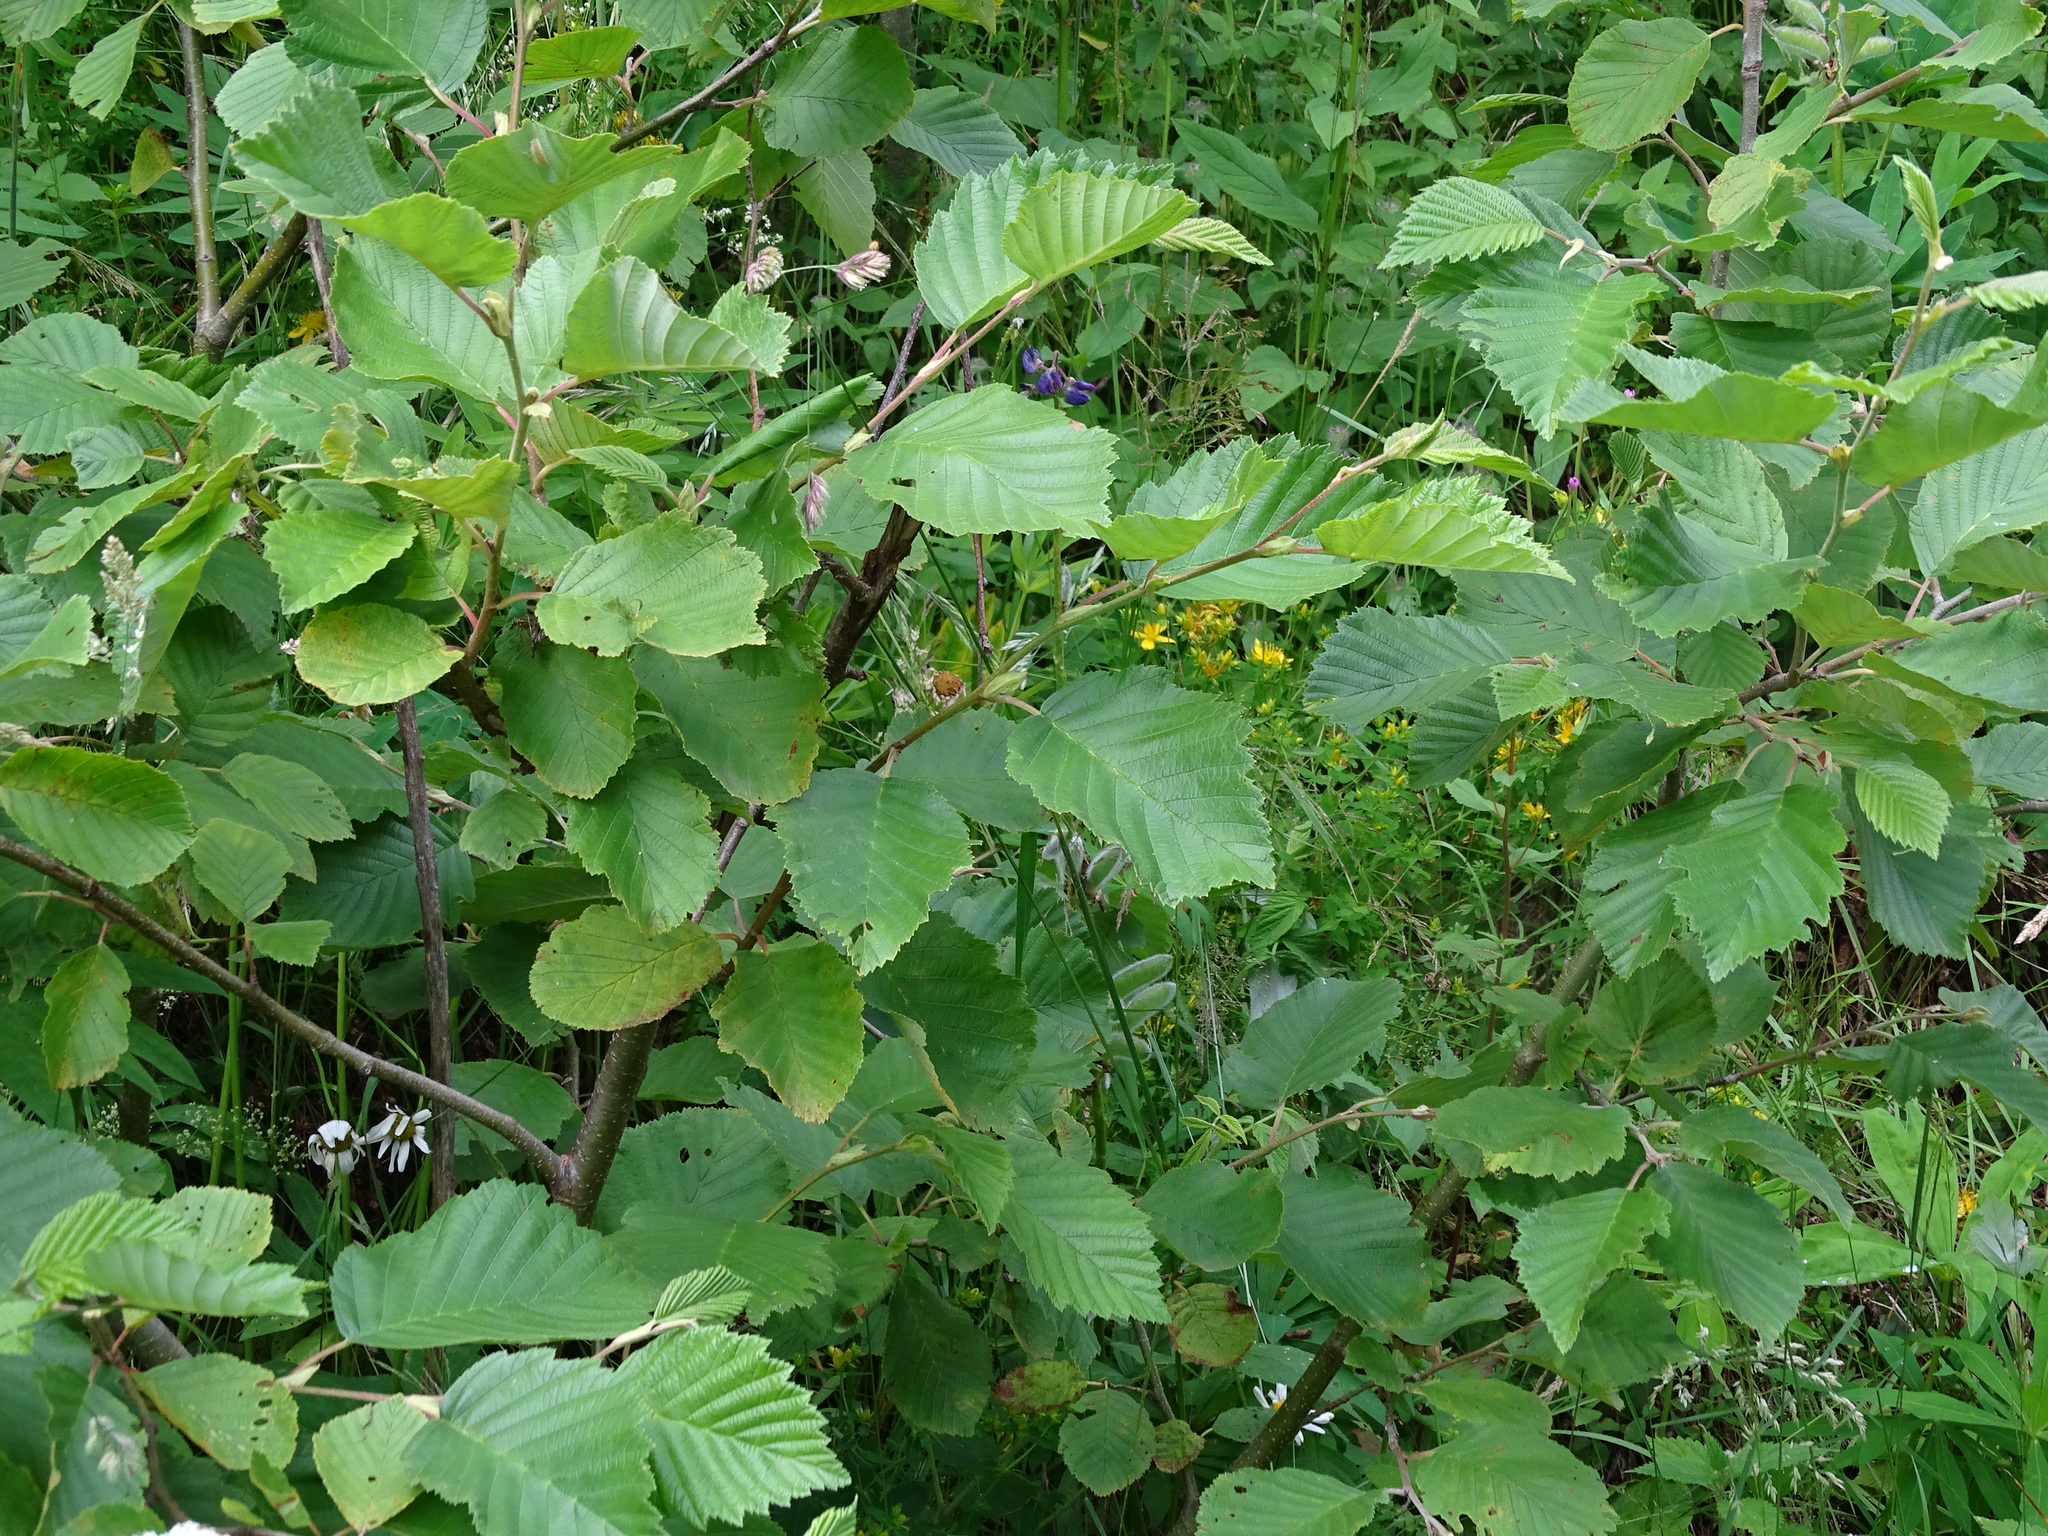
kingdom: Plantae
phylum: Tracheophyta
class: Magnoliopsida
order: Fagales
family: Betulaceae
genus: Alnus
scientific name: Alnus incana
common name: Grey alder
